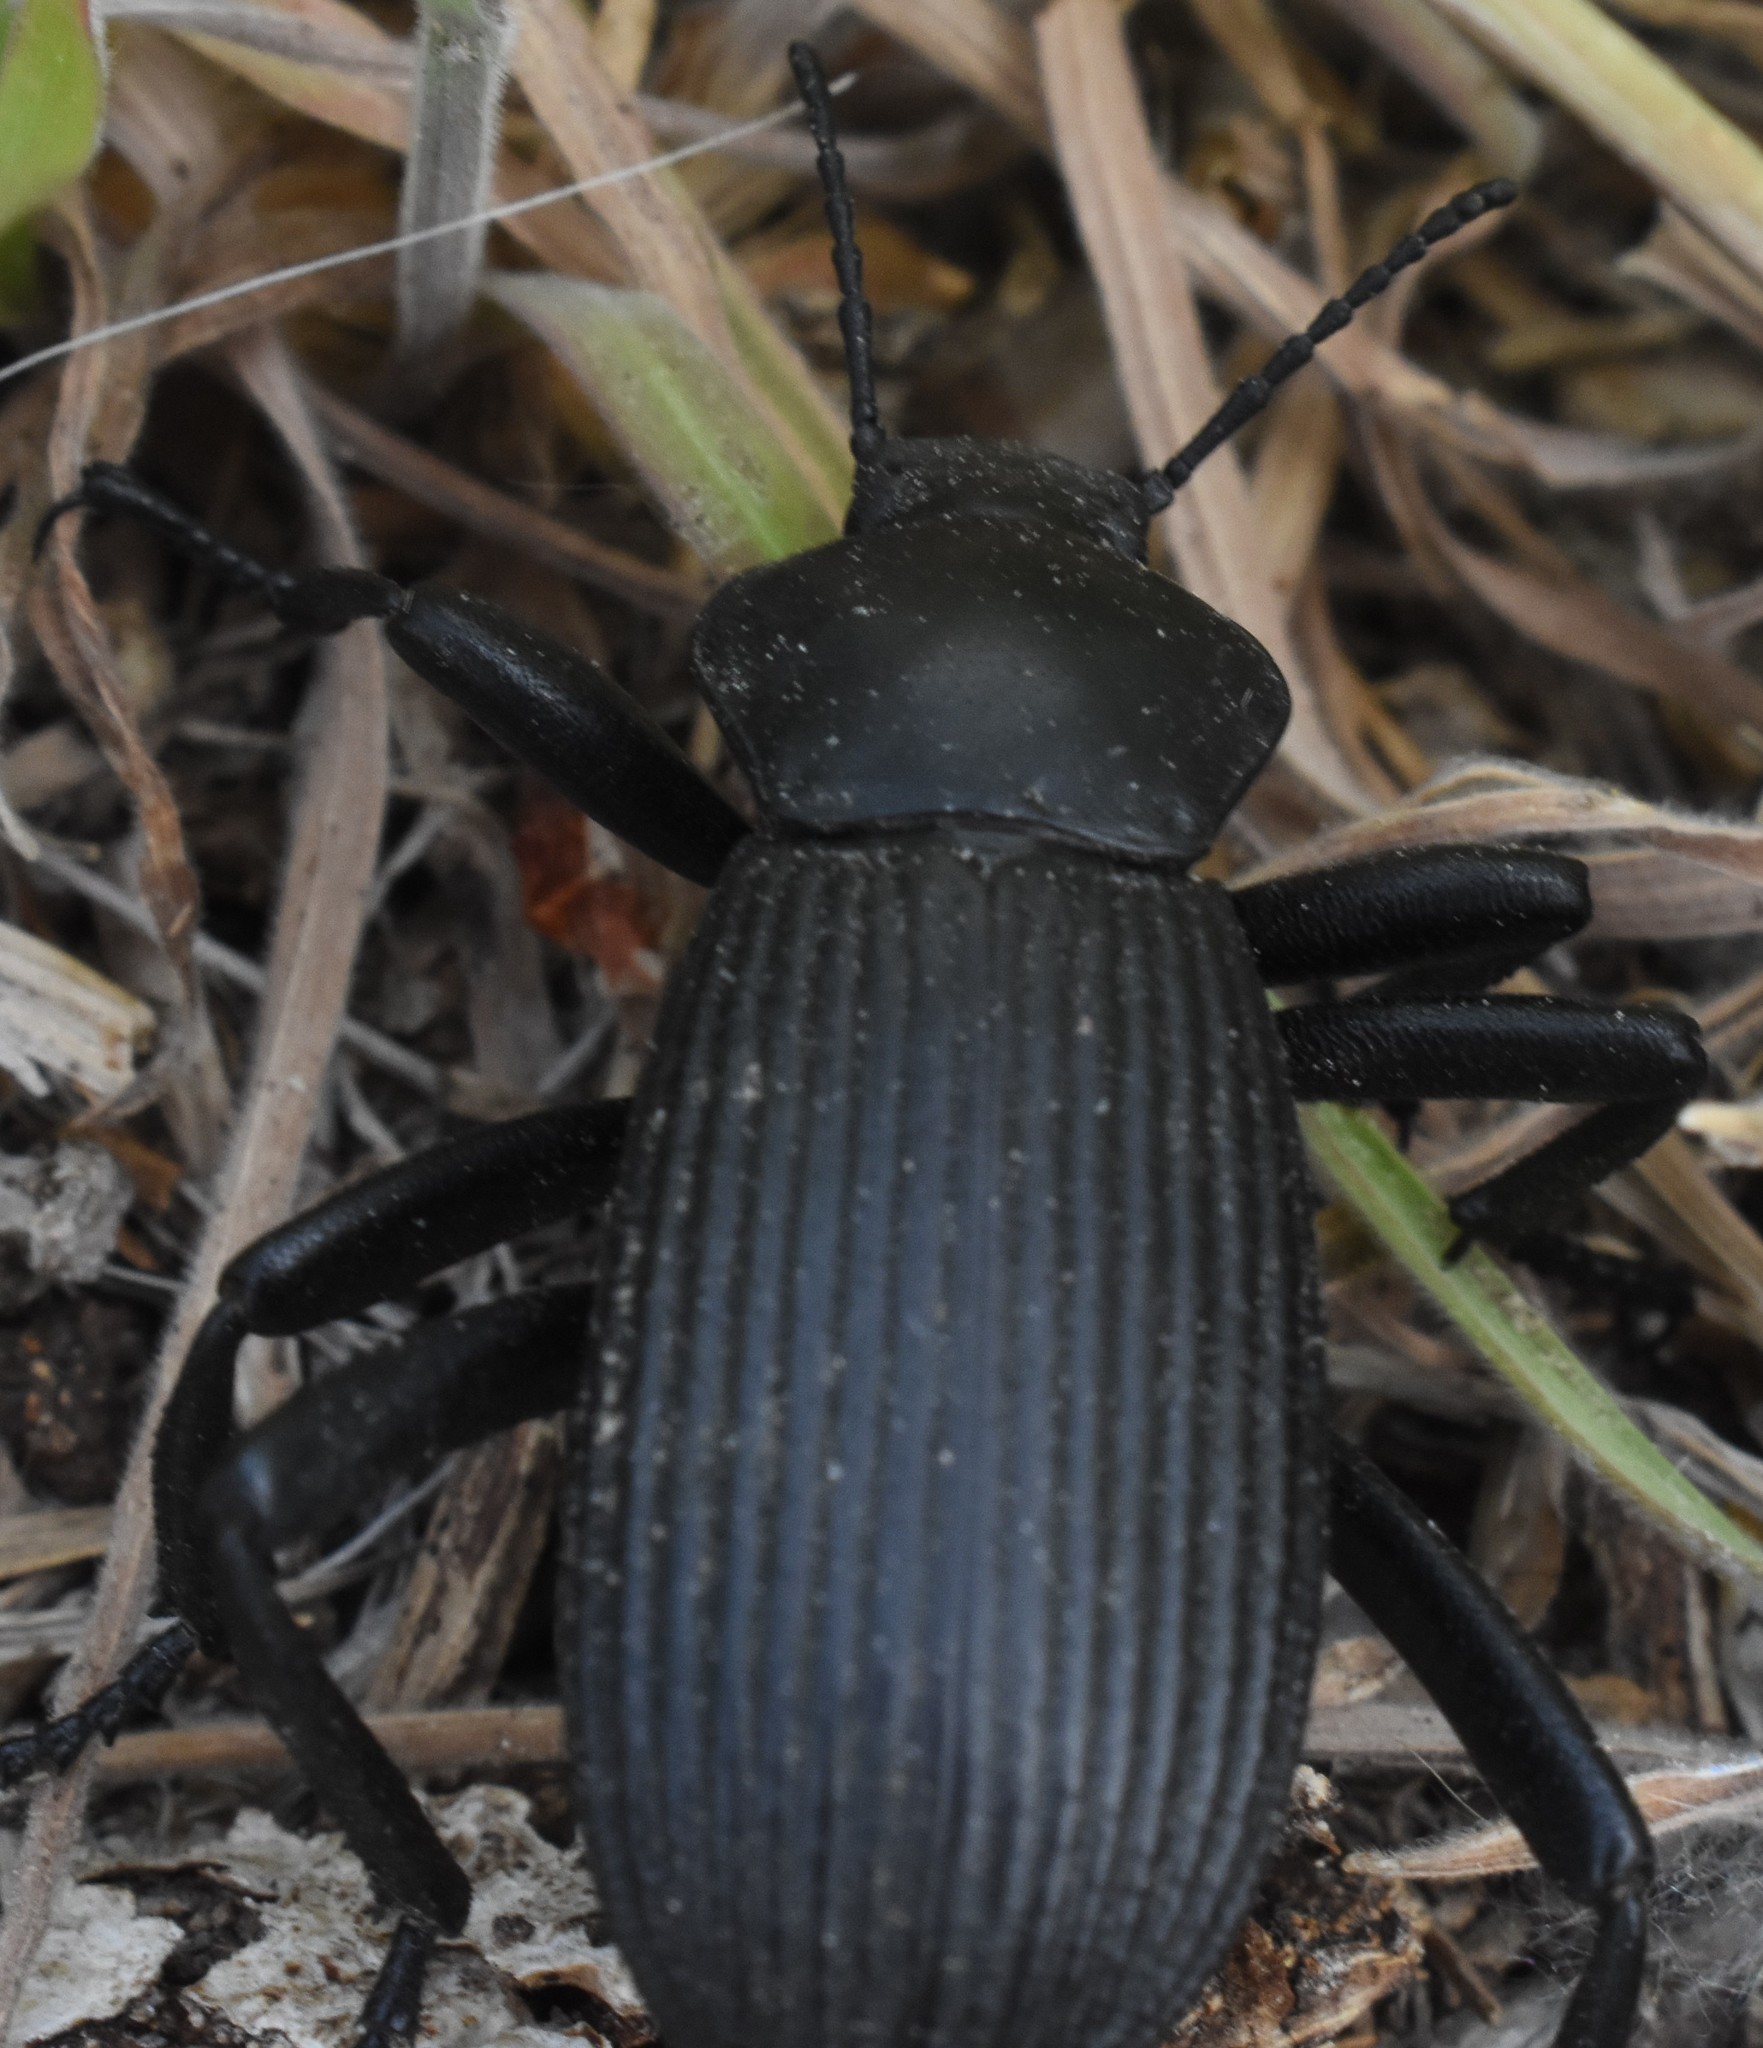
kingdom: Animalia
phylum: Arthropoda
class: Insecta
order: Coleoptera
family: Tenebrionidae
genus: Eleodes
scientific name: Eleodes obscura
